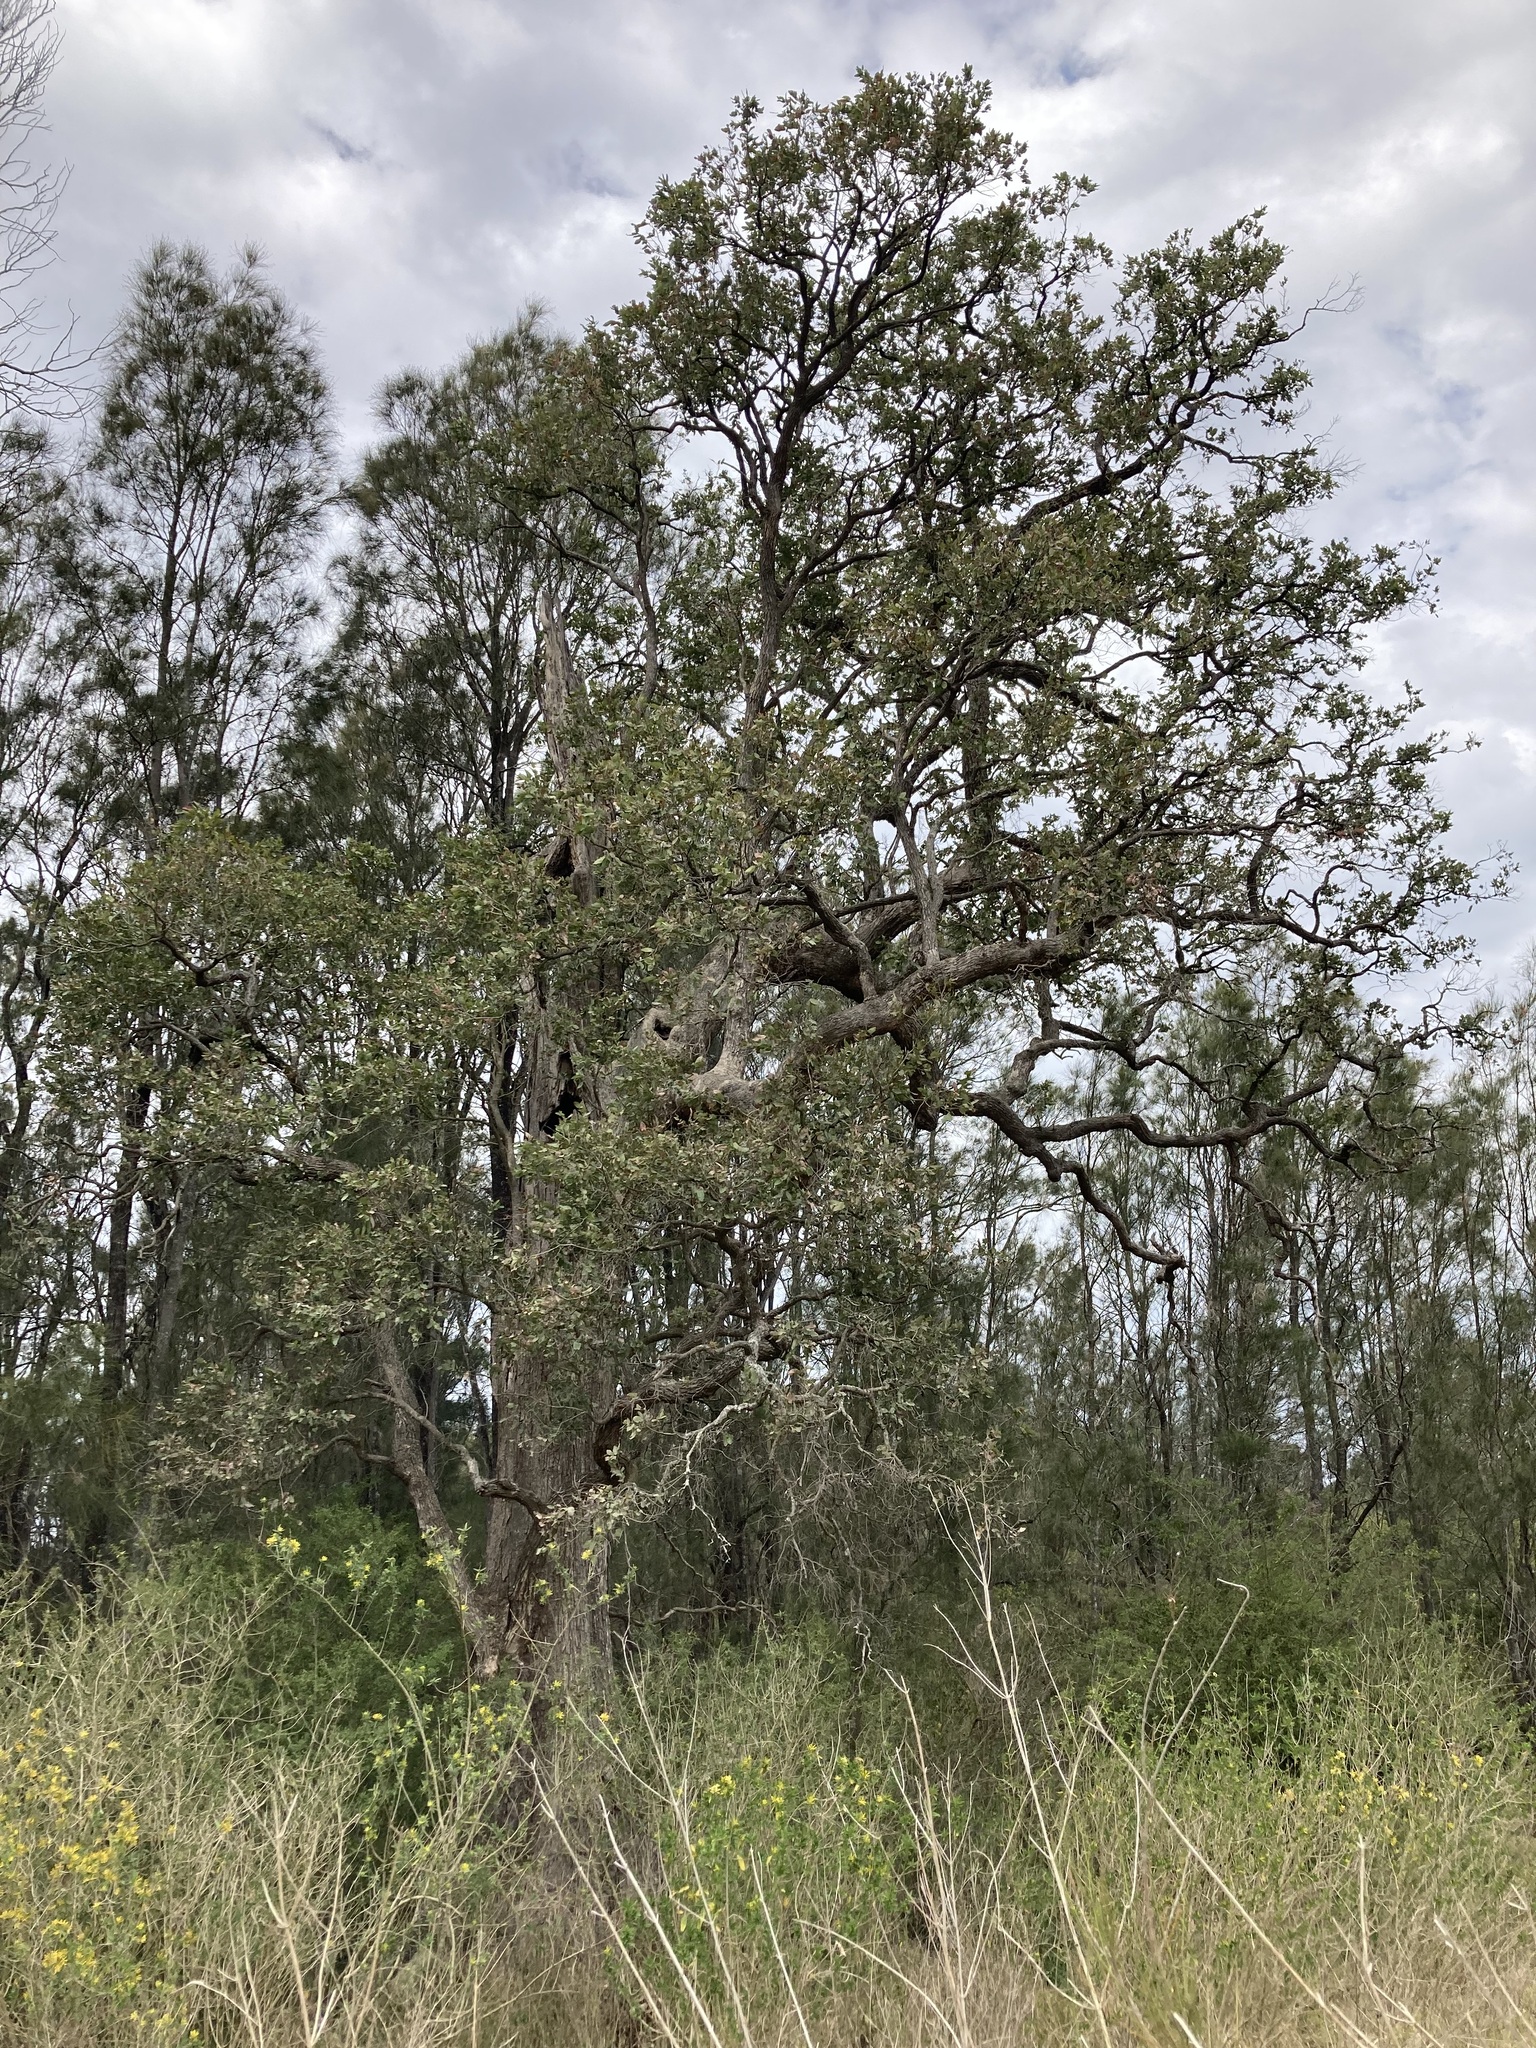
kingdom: Plantae
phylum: Tracheophyta
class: Magnoliopsida
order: Myrtales
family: Myrtaceae
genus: Angophora
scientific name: Angophora subvelutina
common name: Broad-leaved apple
